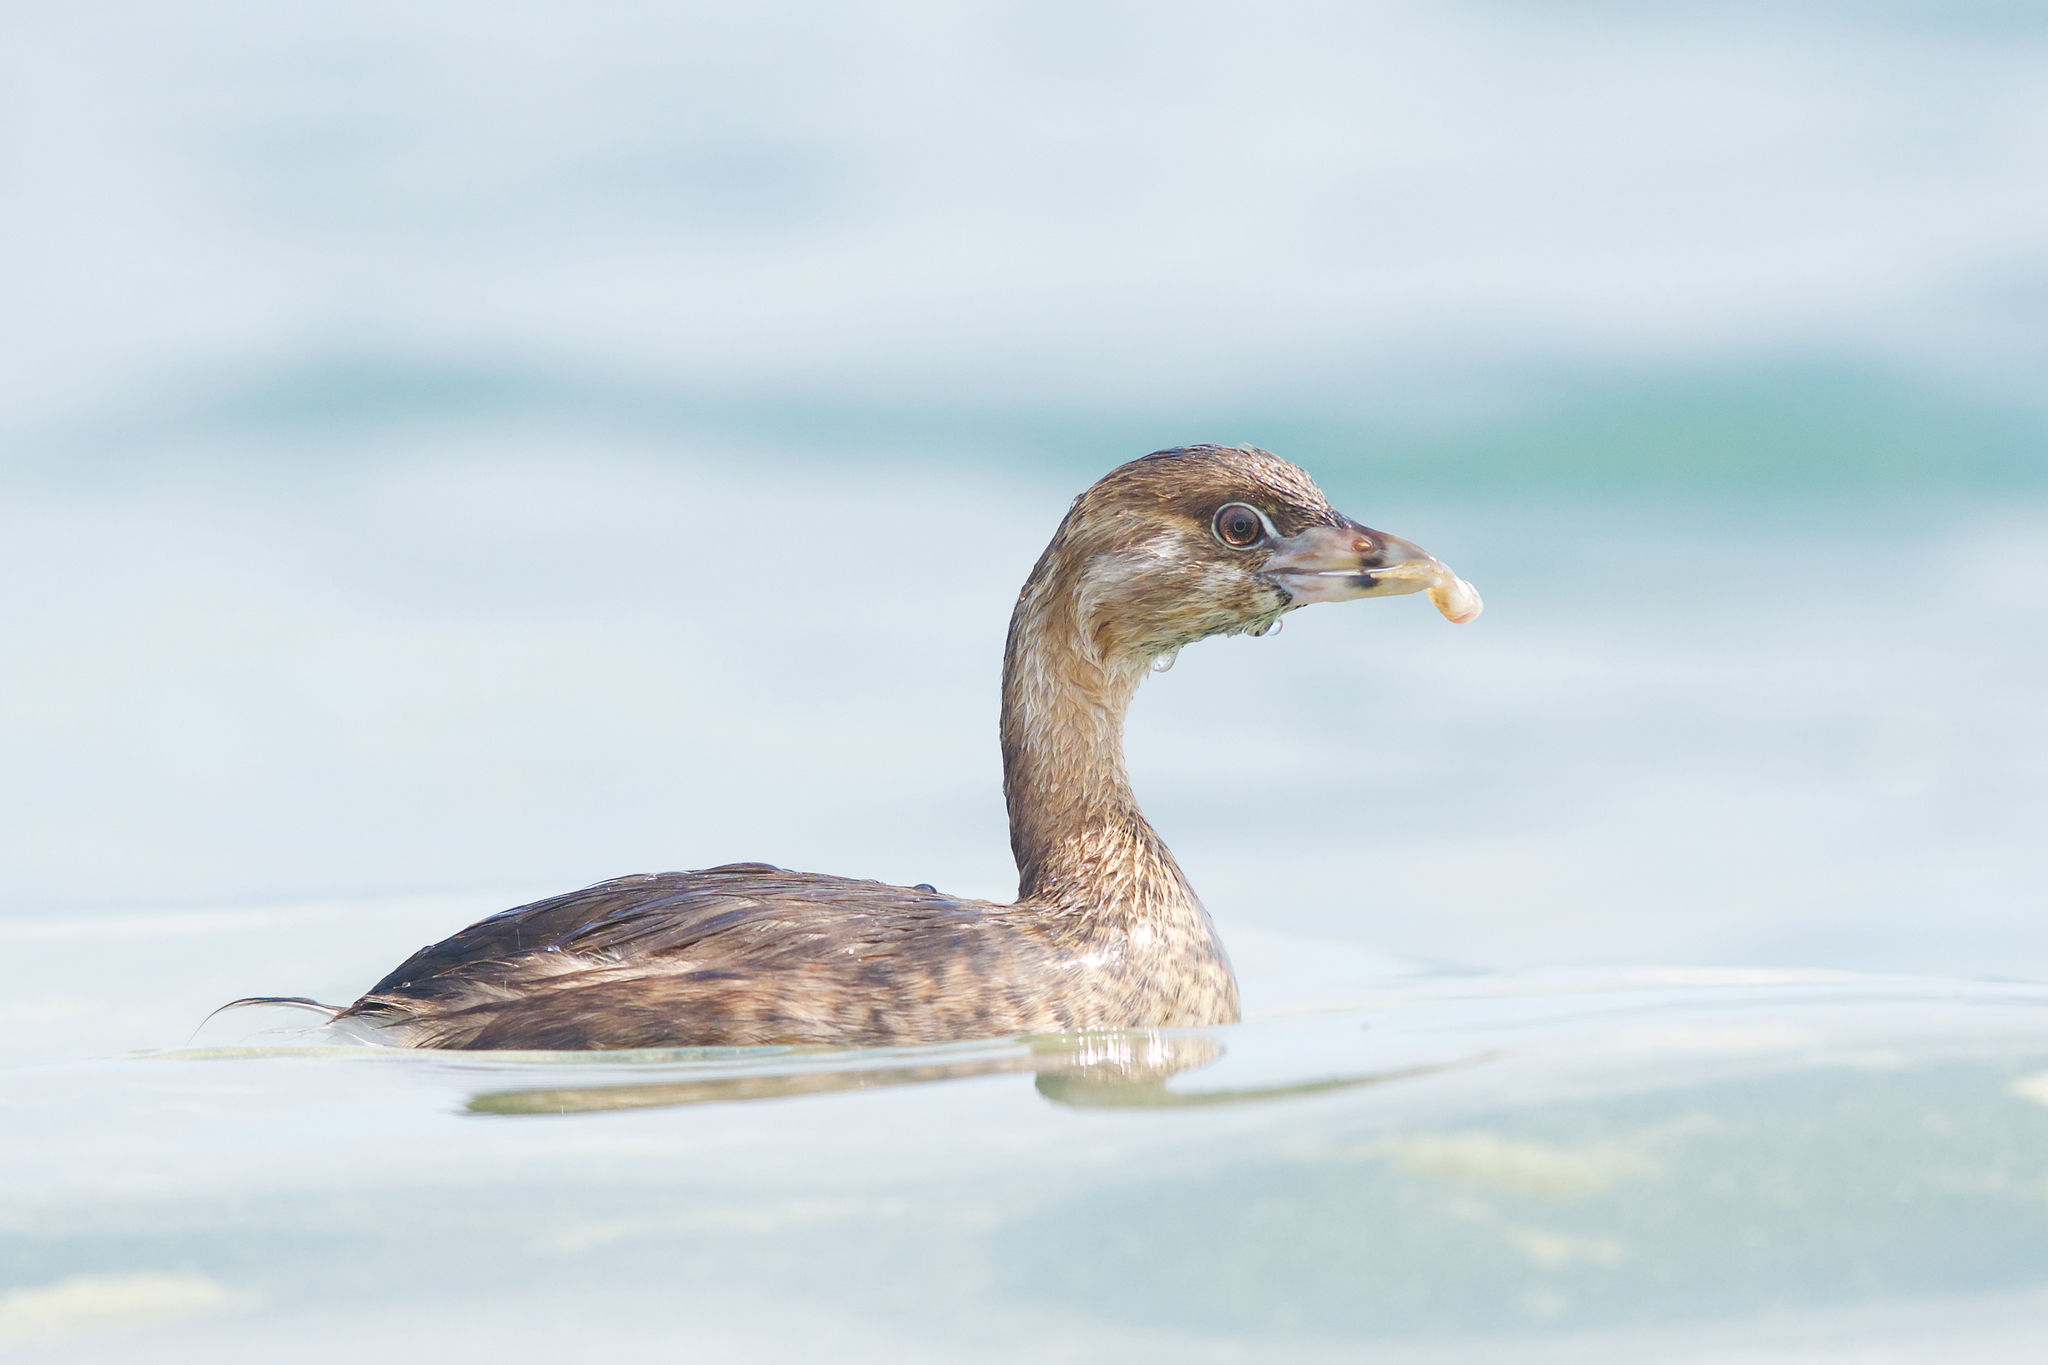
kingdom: Animalia
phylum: Chordata
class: Aves
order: Podicipediformes
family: Podicipedidae
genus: Podilymbus
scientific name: Podilymbus podiceps
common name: Pied-billed grebe
